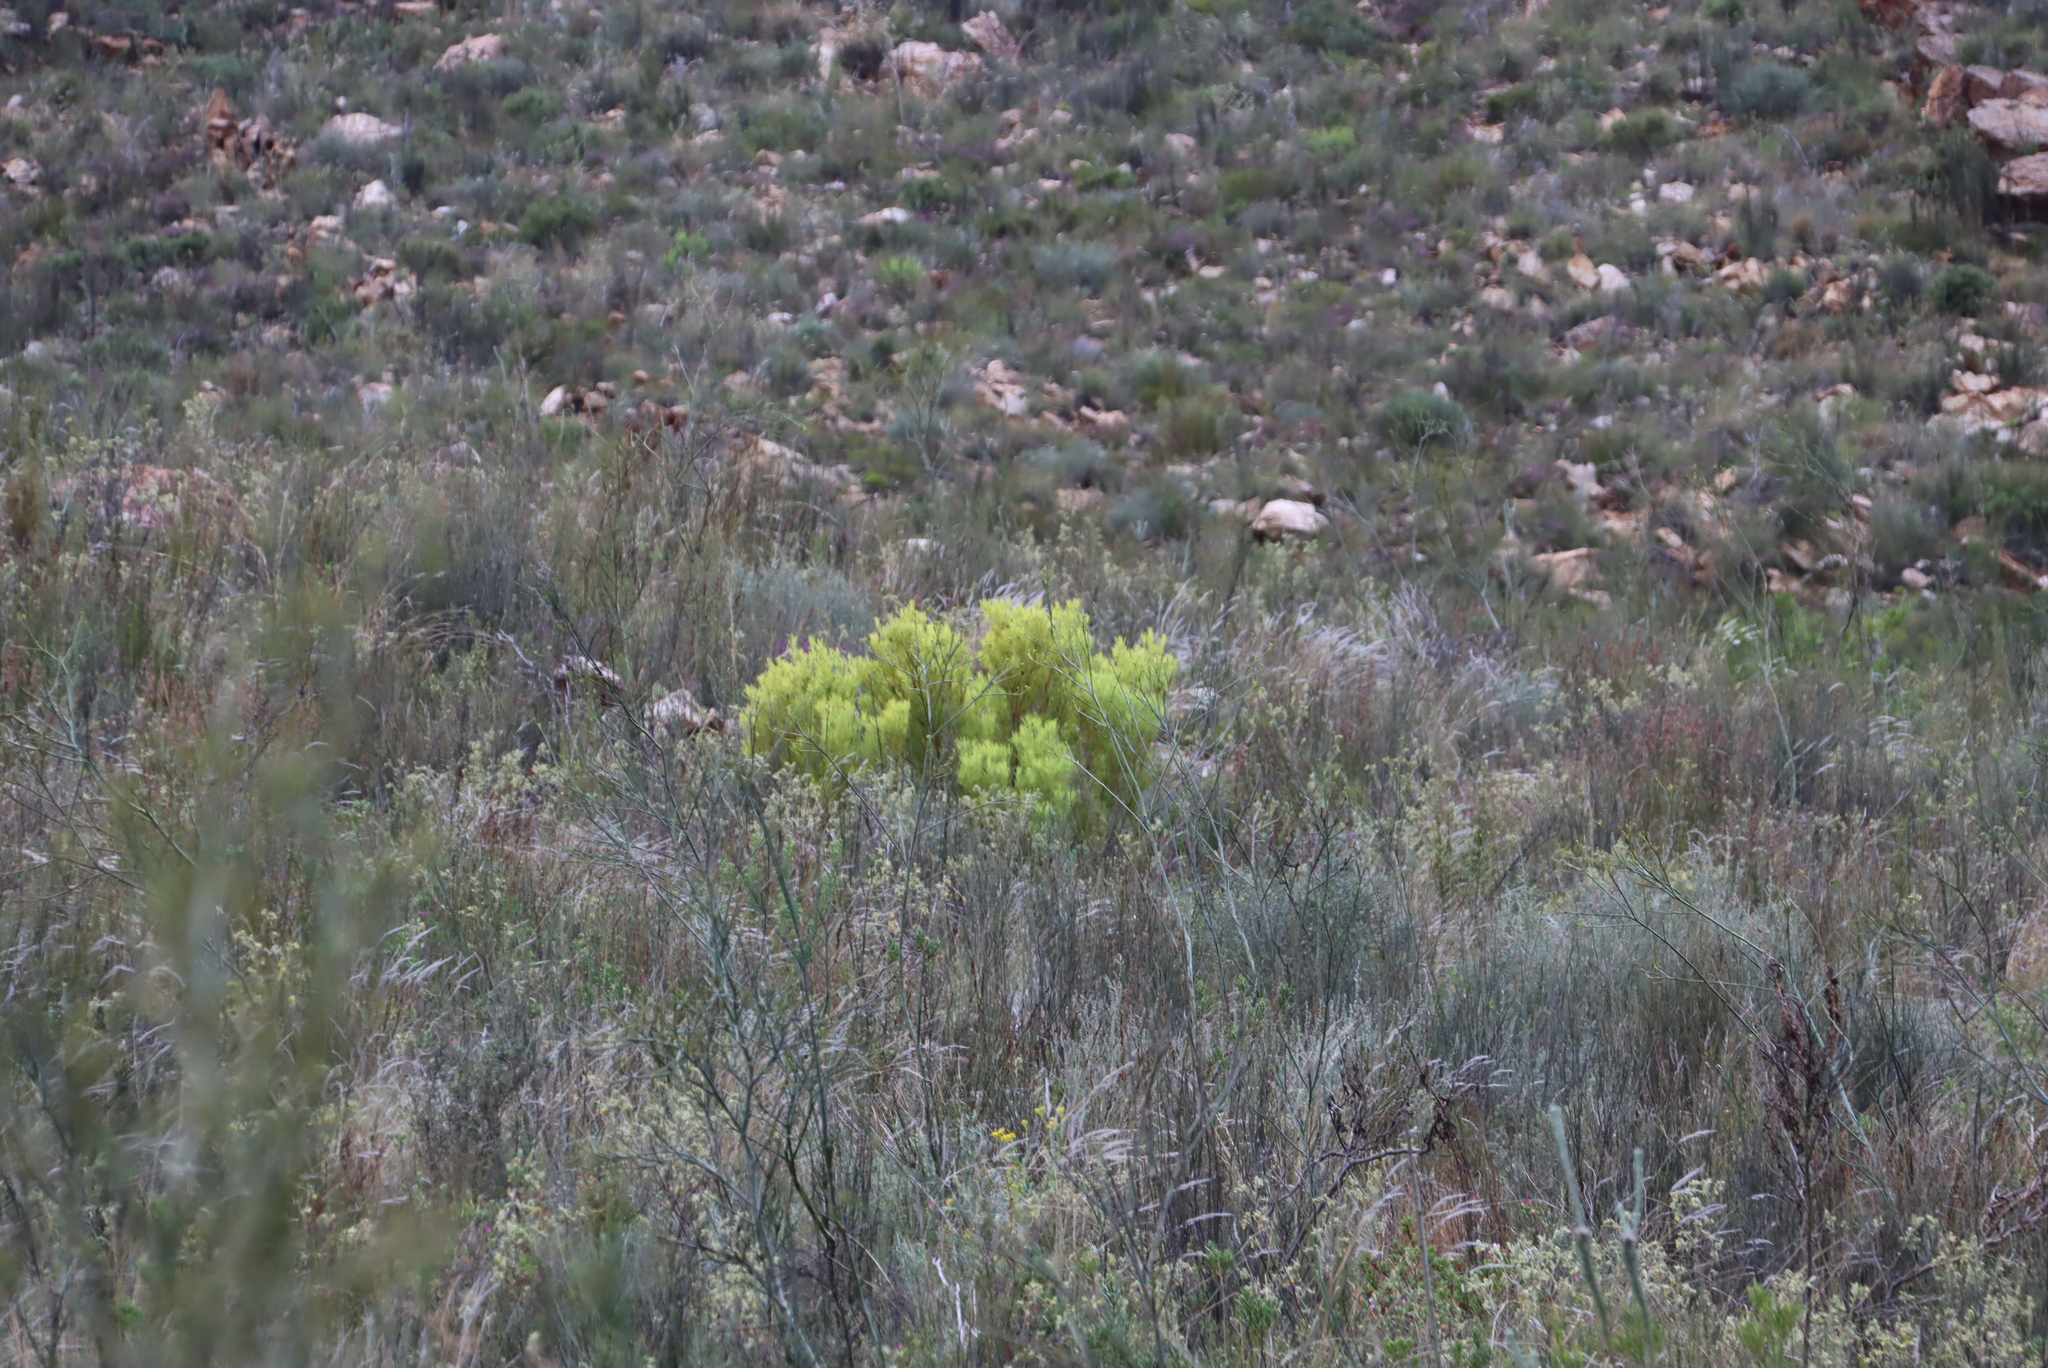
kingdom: Plantae
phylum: Tracheophyta
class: Magnoliopsida
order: Proteales
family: Proteaceae
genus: Leucadendron
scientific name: Leucadendron salignum
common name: Common sunshine conebush
